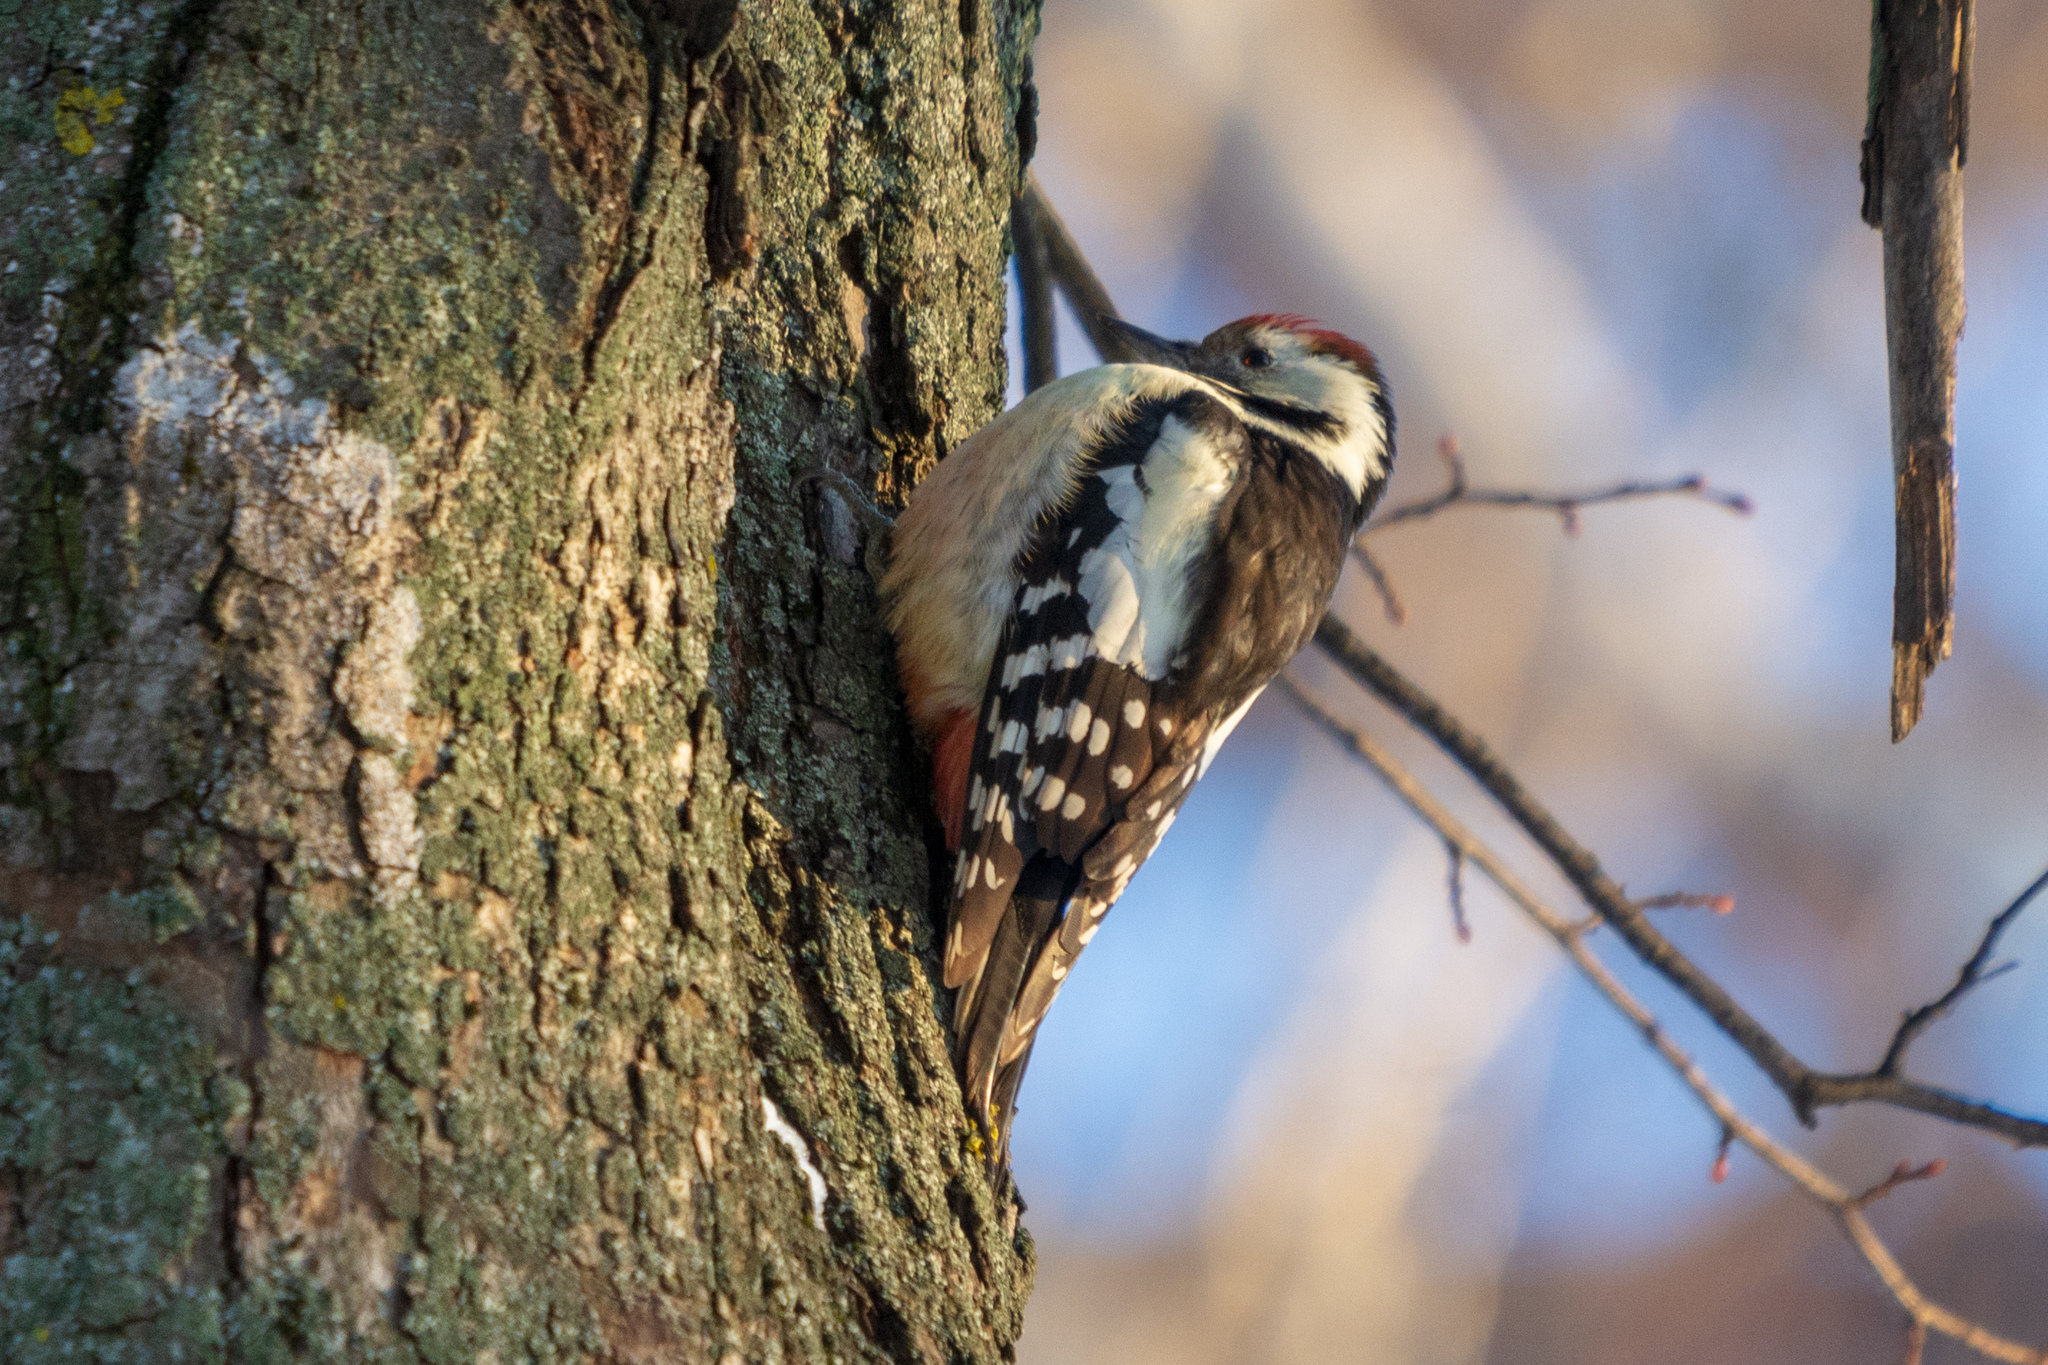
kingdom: Animalia
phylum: Chordata
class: Aves
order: Piciformes
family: Picidae
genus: Dendrocoptes
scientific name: Dendrocoptes medius
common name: Middle spotted woodpecker
